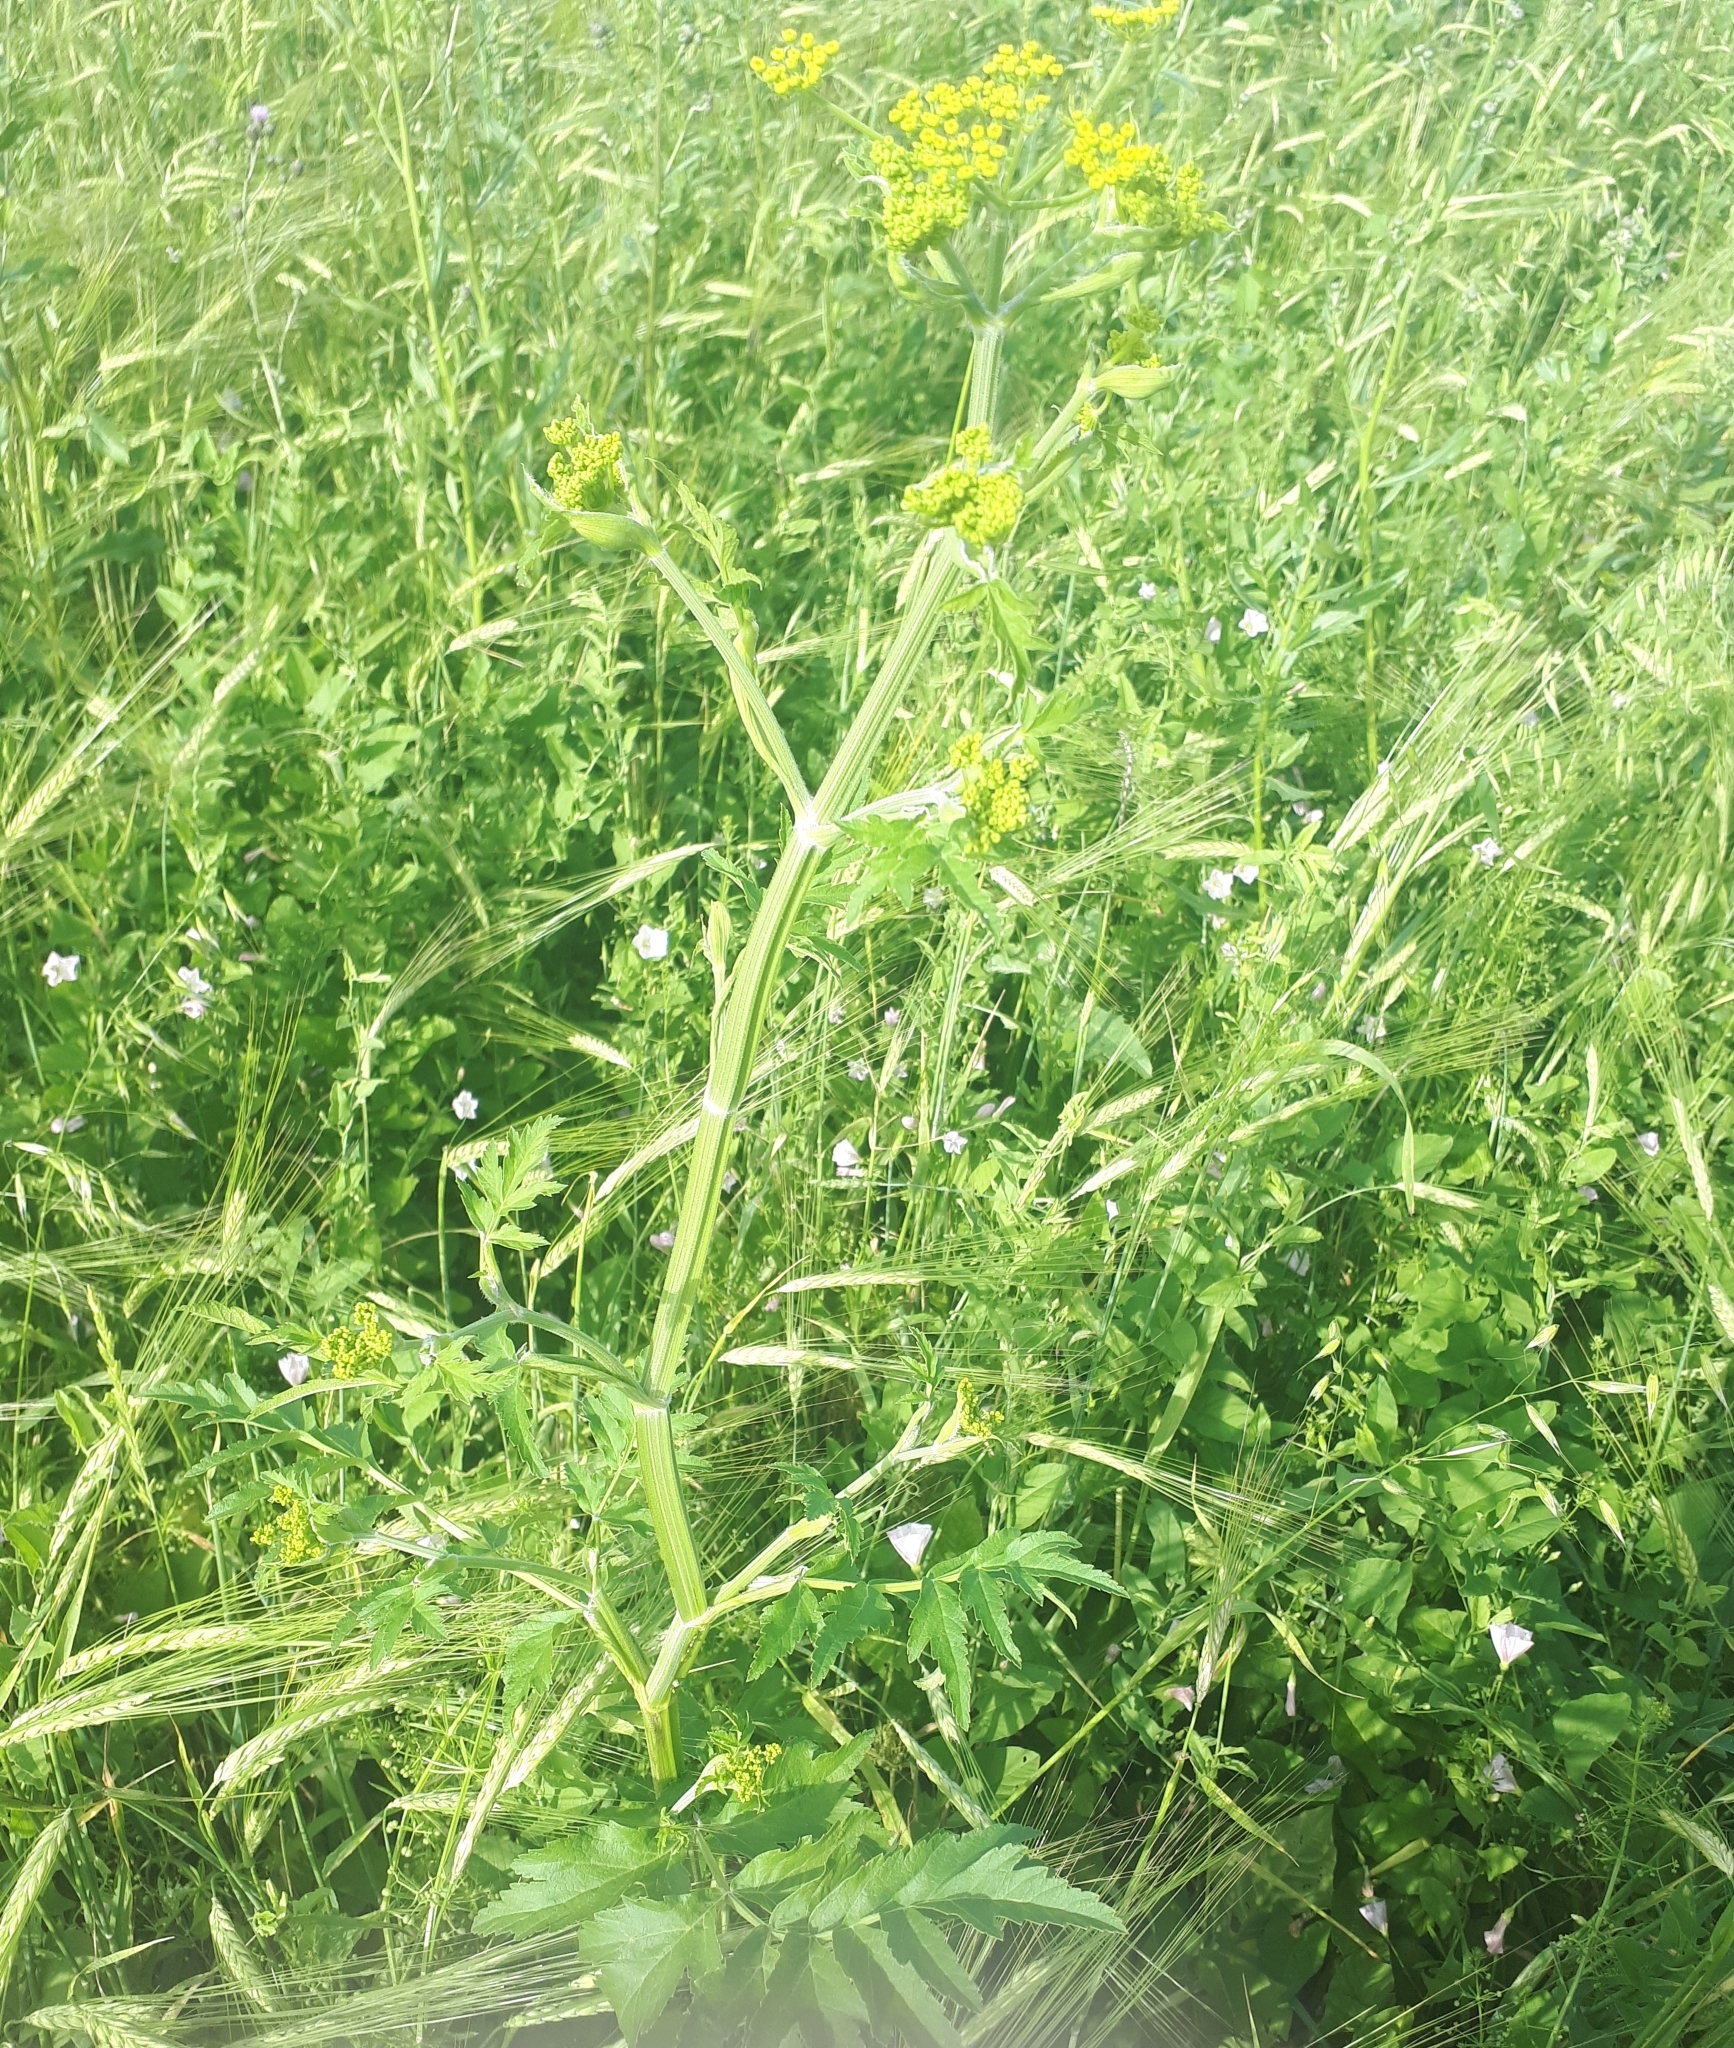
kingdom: Plantae
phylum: Tracheophyta
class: Magnoliopsida
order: Apiales
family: Apiaceae
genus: Pastinaca
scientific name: Pastinaca sativa
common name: Wild parsnip
